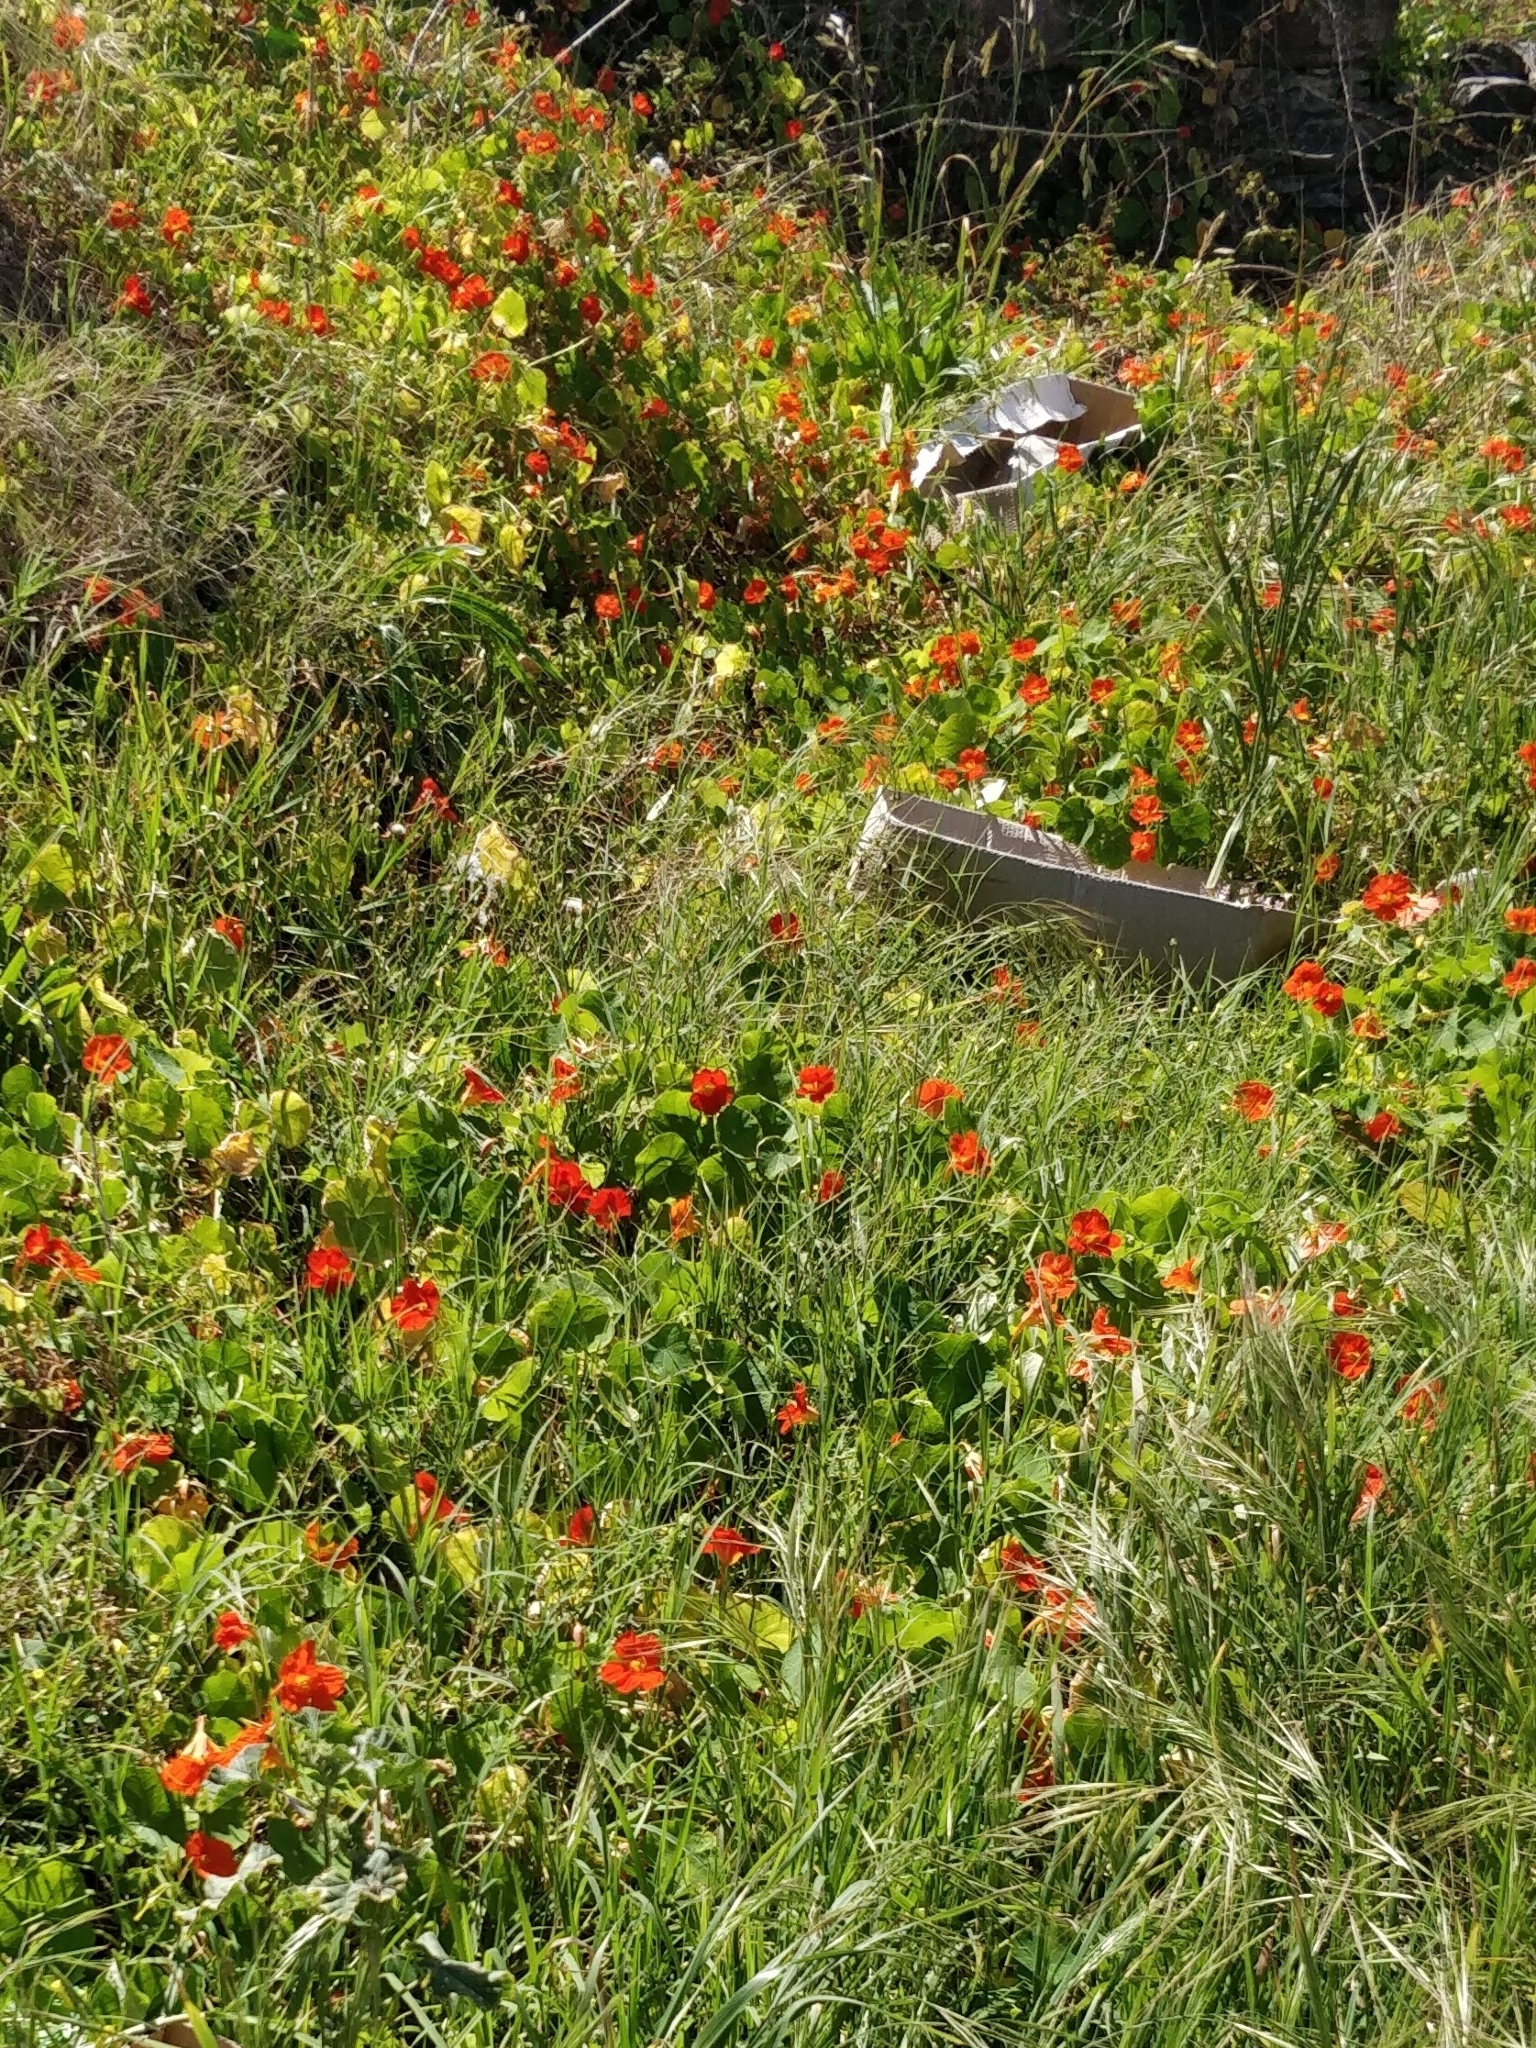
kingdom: Plantae
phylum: Tracheophyta
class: Magnoliopsida
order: Brassicales
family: Tropaeolaceae
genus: Tropaeolum
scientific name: Tropaeolum majus
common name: Nasturtium
